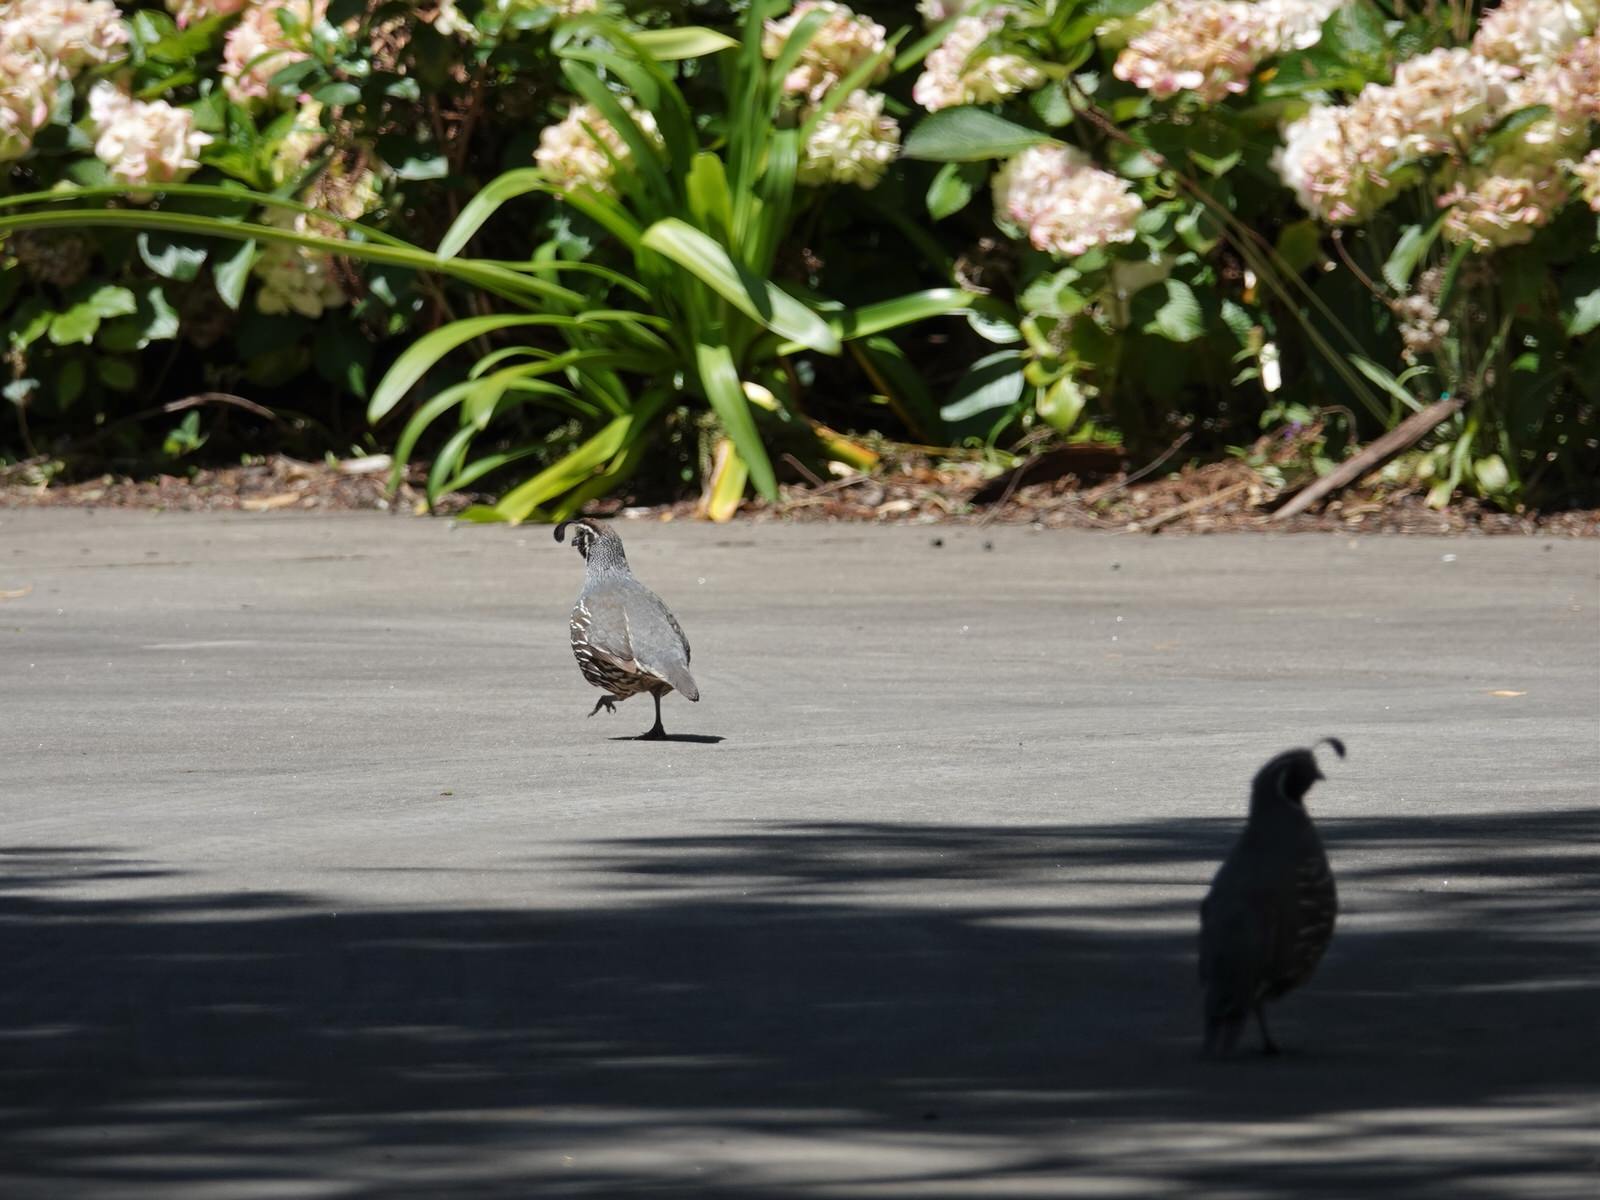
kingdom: Animalia
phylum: Chordata
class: Aves
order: Galliformes
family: Odontophoridae
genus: Callipepla
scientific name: Callipepla californica
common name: California quail
